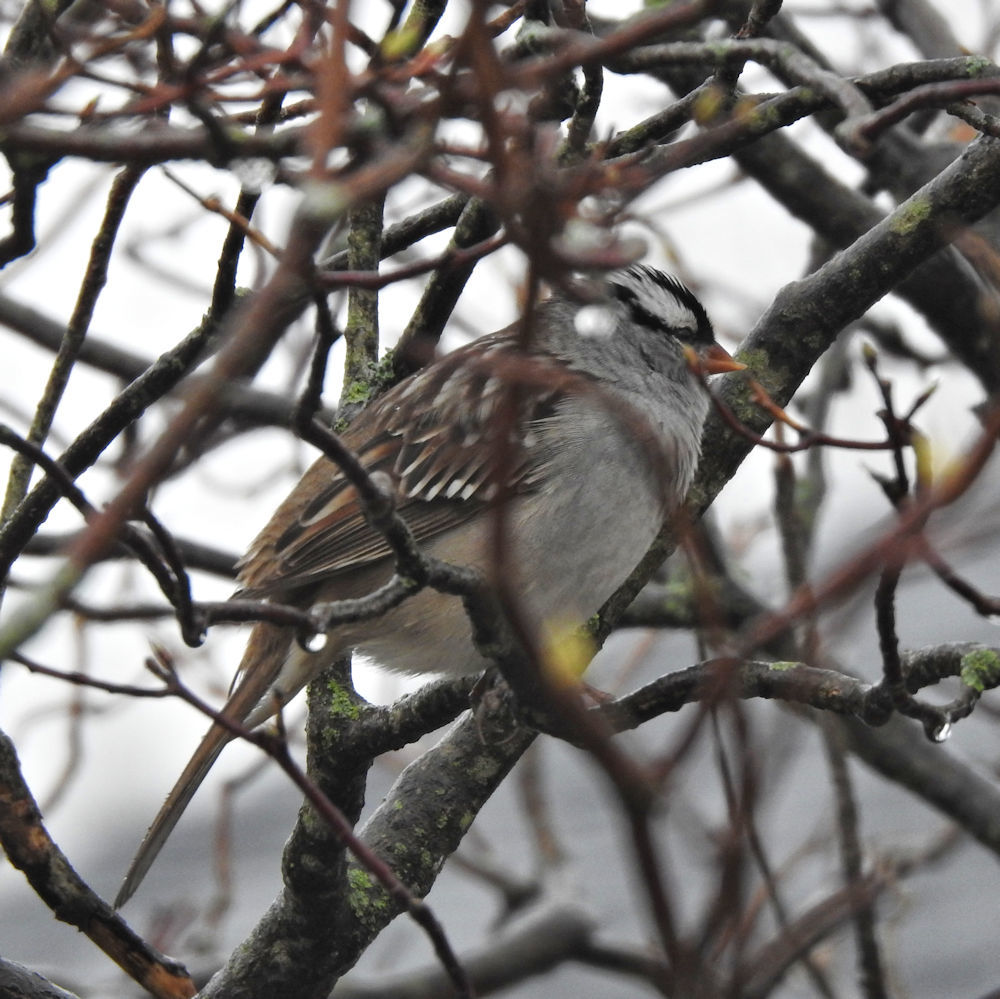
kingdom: Animalia
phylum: Chordata
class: Aves
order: Passeriformes
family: Passerellidae
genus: Zonotrichia
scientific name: Zonotrichia leucophrys
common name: White-crowned sparrow
